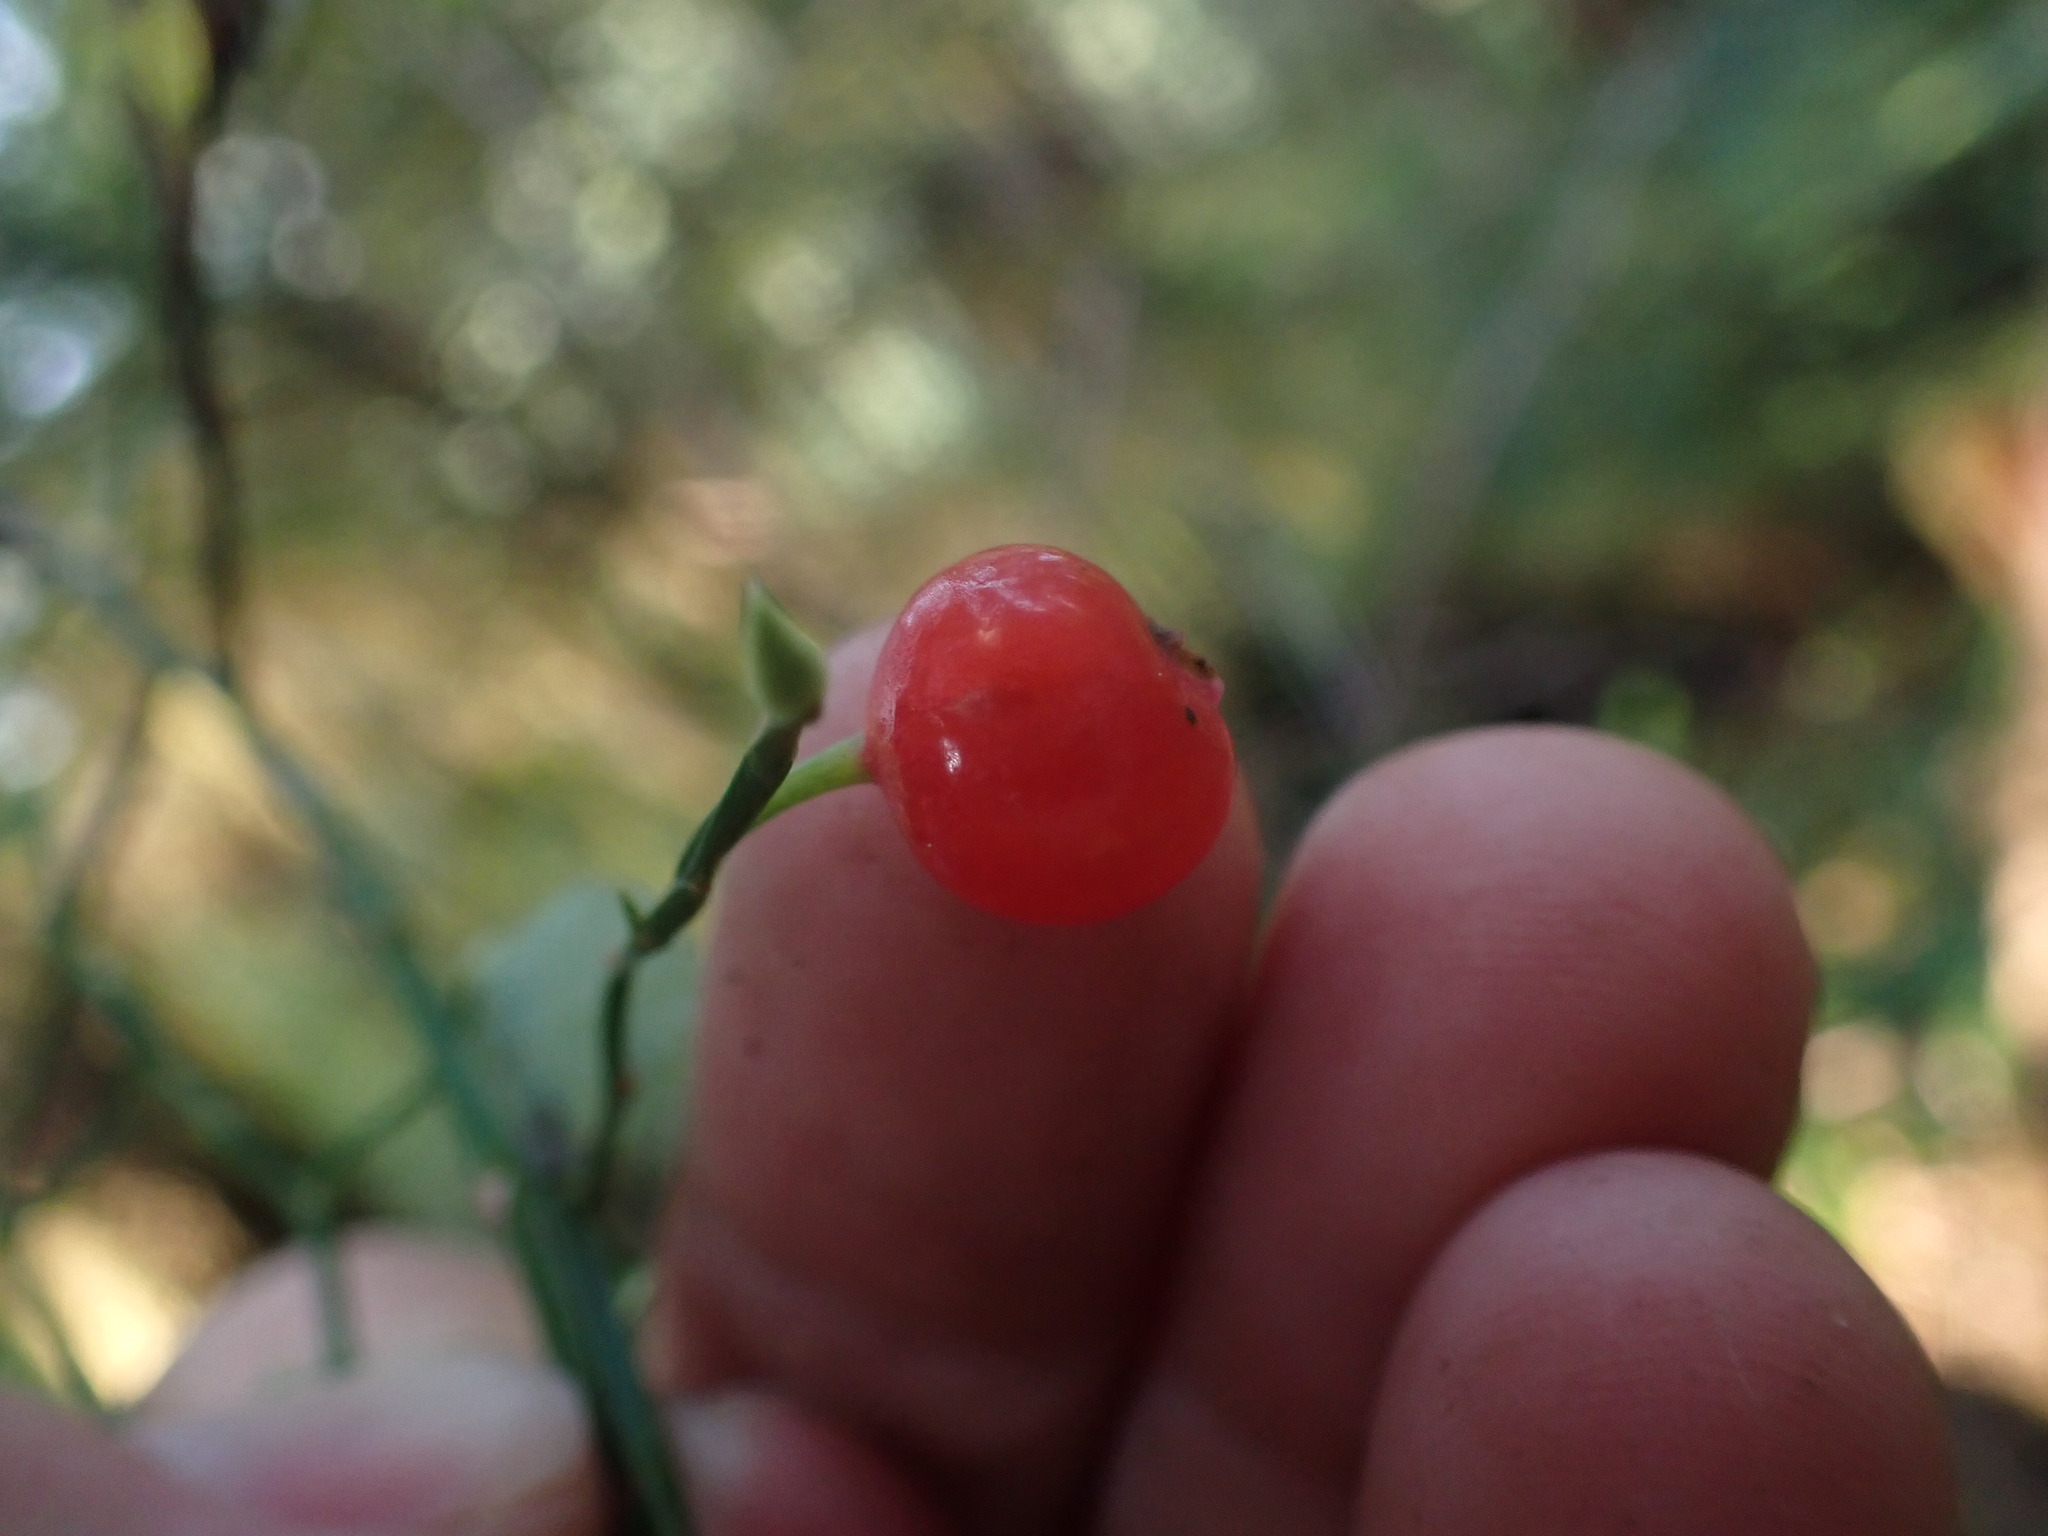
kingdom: Plantae
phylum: Tracheophyta
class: Magnoliopsida
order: Ericales
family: Ericaceae
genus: Vaccinium
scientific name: Vaccinium parvifolium
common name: Red-huckleberry
